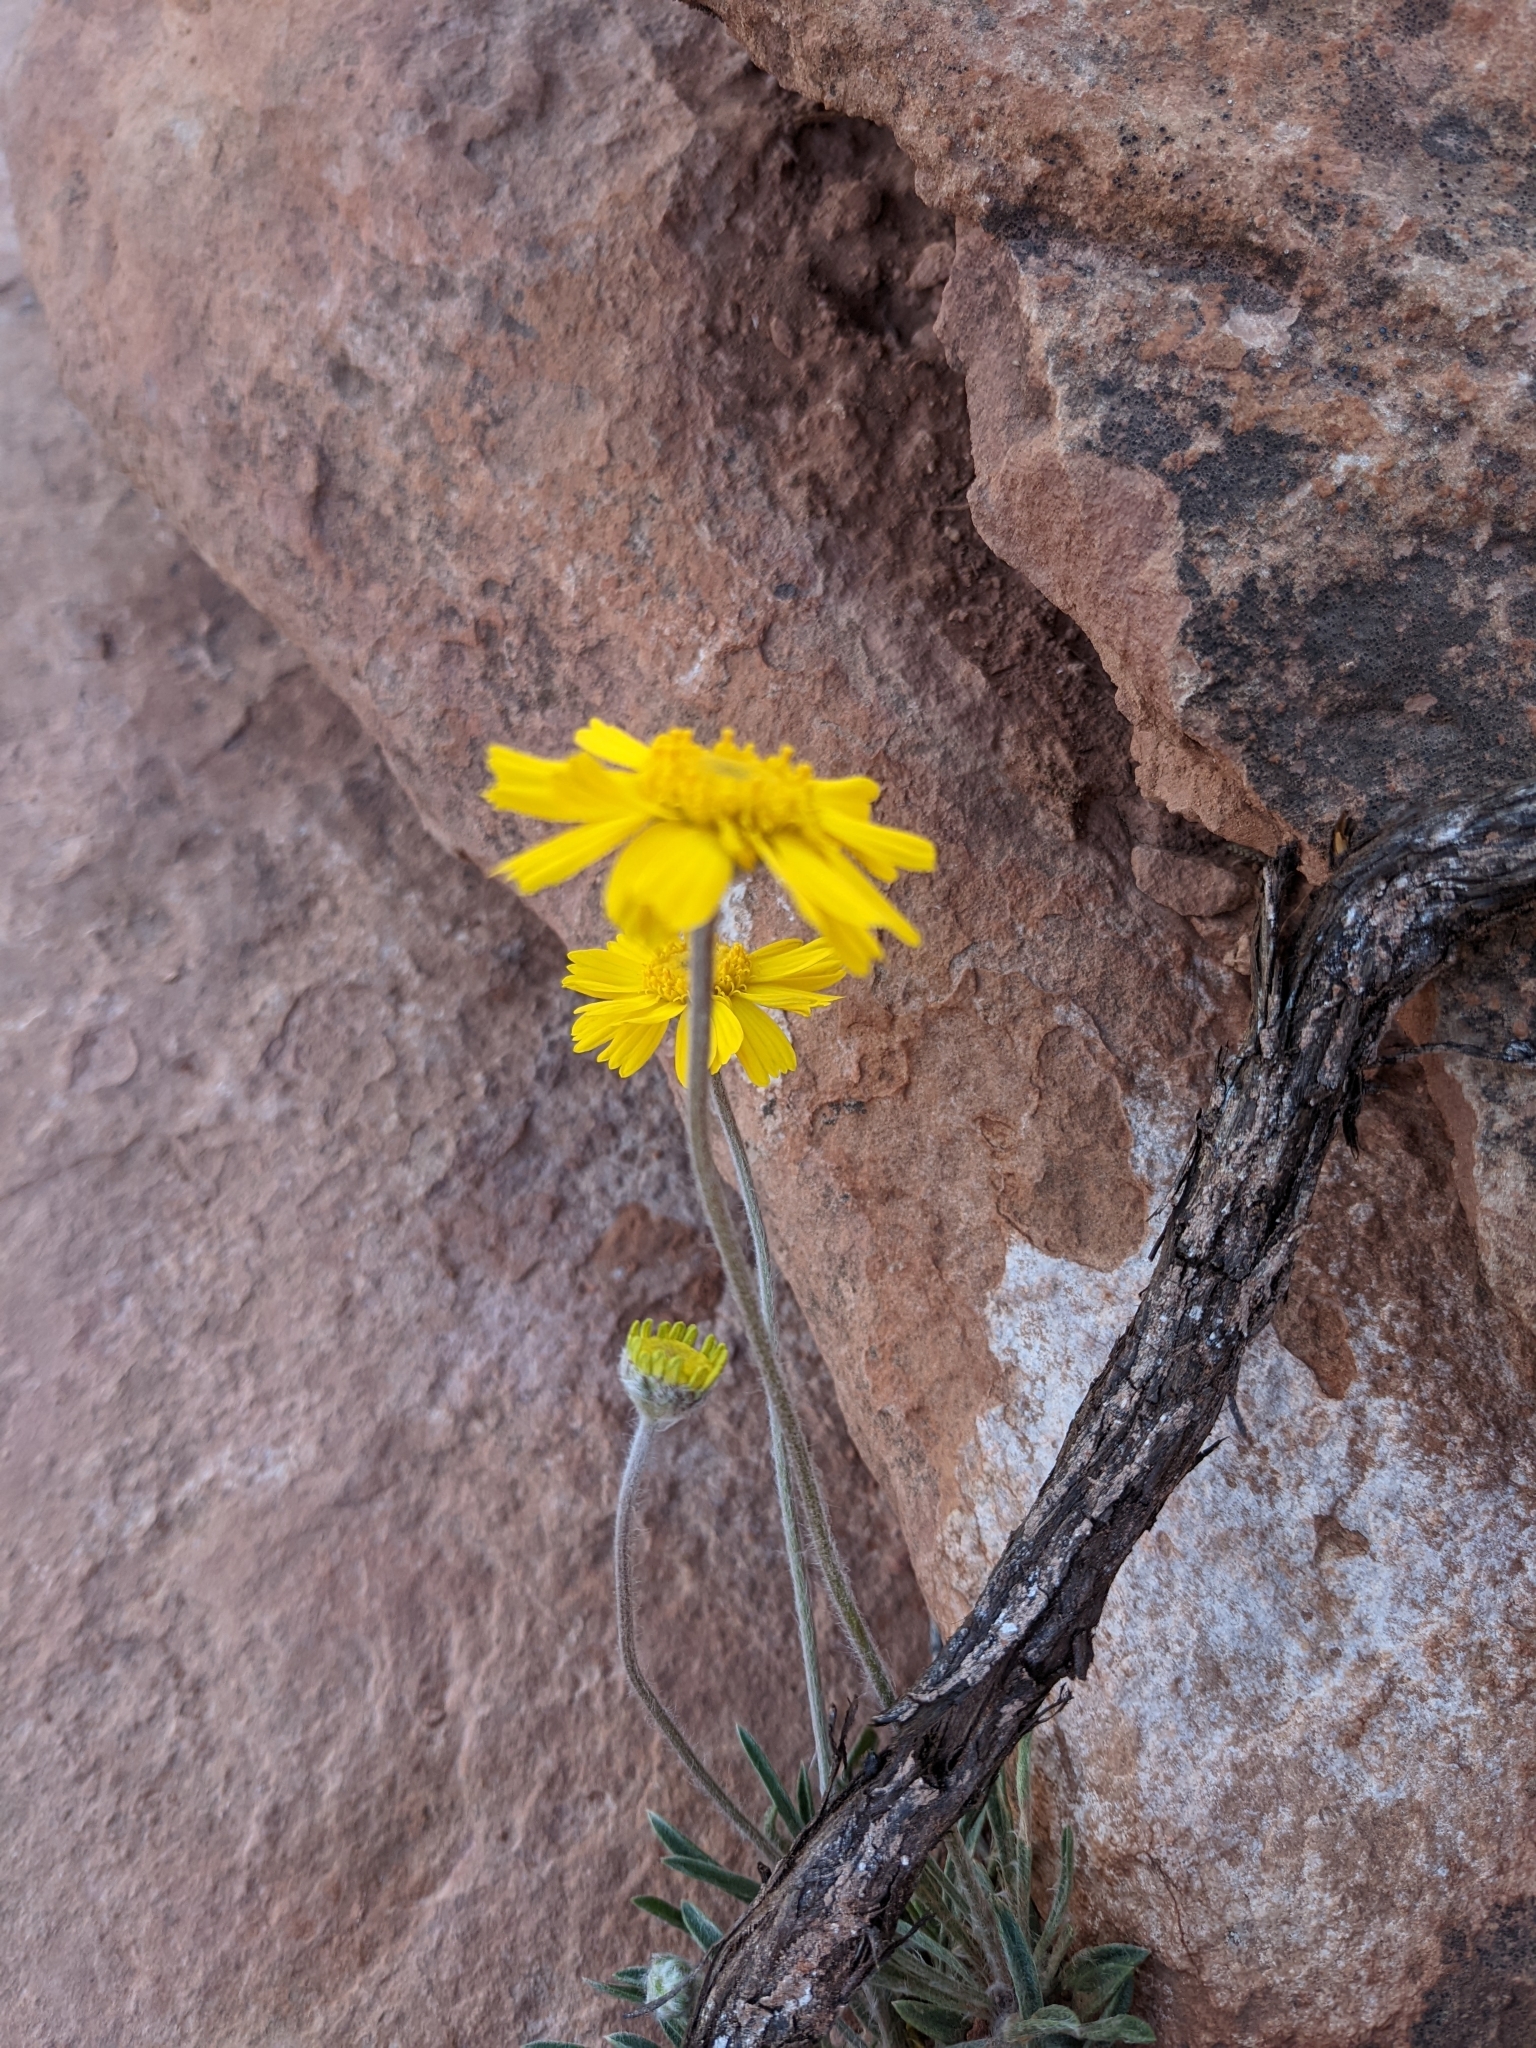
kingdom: Plantae
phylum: Tracheophyta
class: Magnoliopsida
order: Asterales
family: Asteraceae
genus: Tetraneuris
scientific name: Tetraneuris acaulis
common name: Butte marigold
